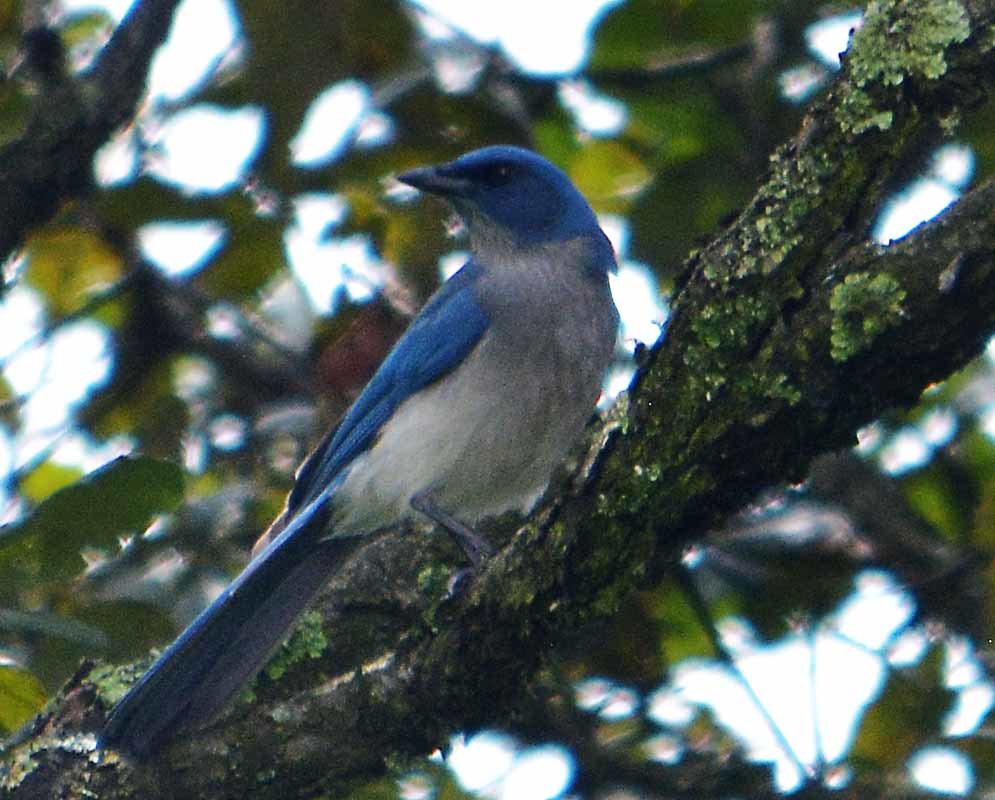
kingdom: Animalia
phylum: Chordata
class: Aves
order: Passeriformes
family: Corvidae
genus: Aphelocoma
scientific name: Aphelocoma ultramarina
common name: Transvolcanic jay
